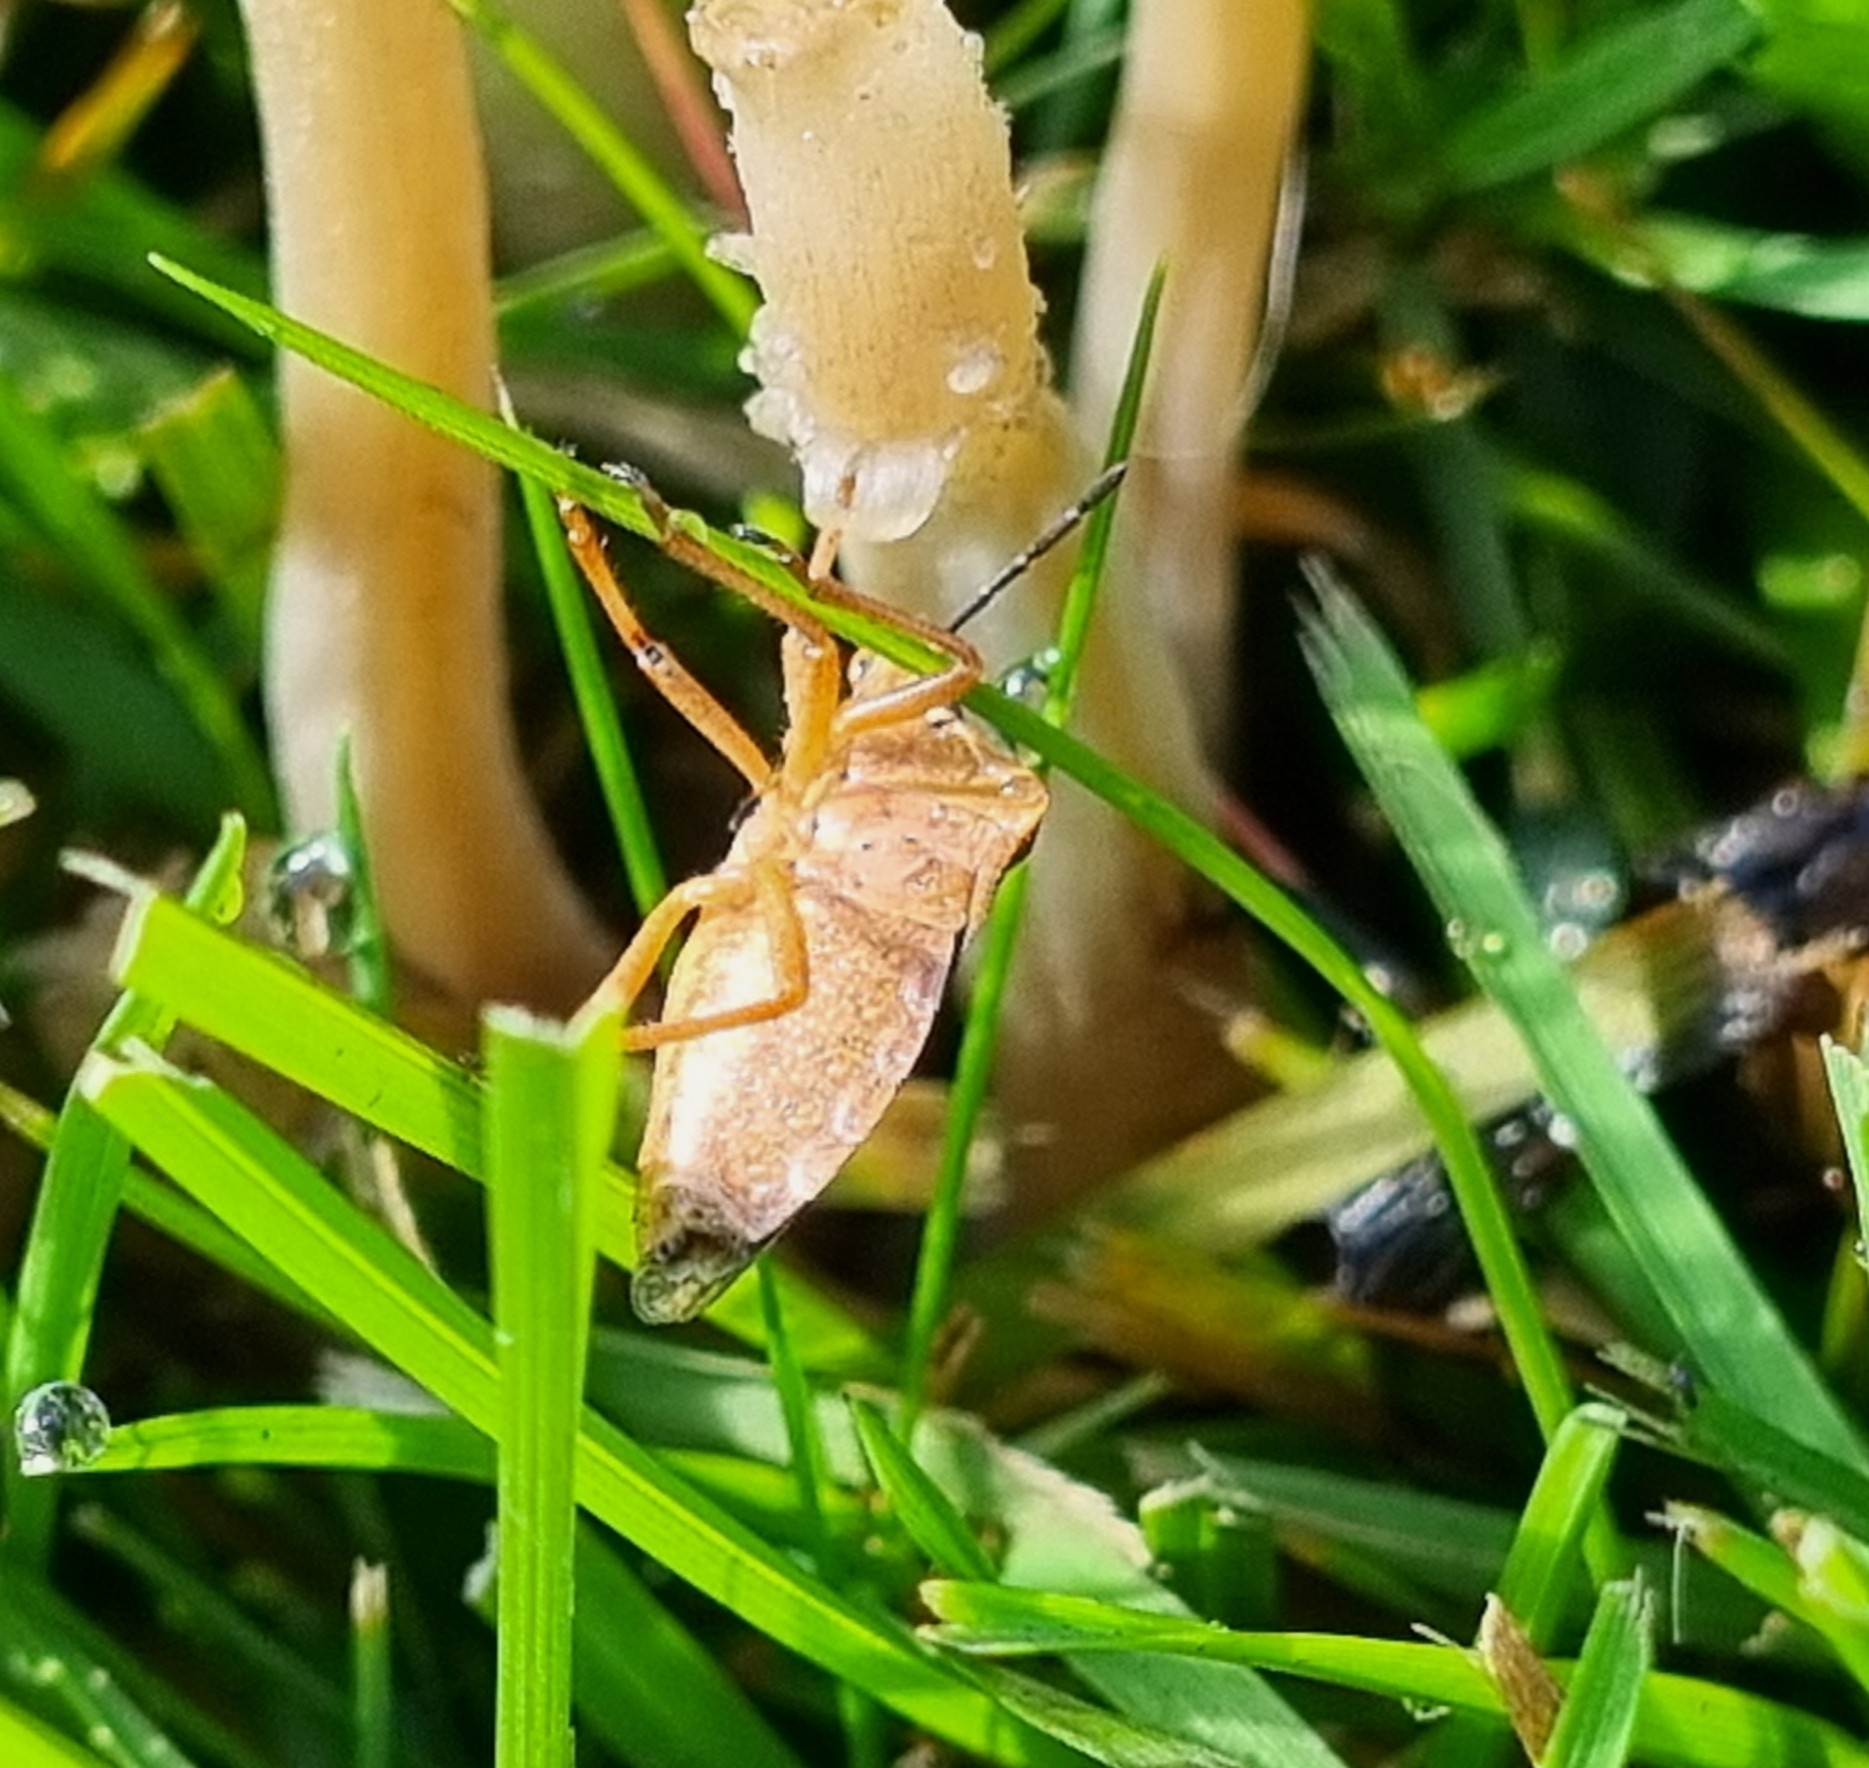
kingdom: Animalia
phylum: Arthropoda
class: Insecta
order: Hemiptera
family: Pentatomidae
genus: Carpocoris
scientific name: Carpocoris purpureipennis
